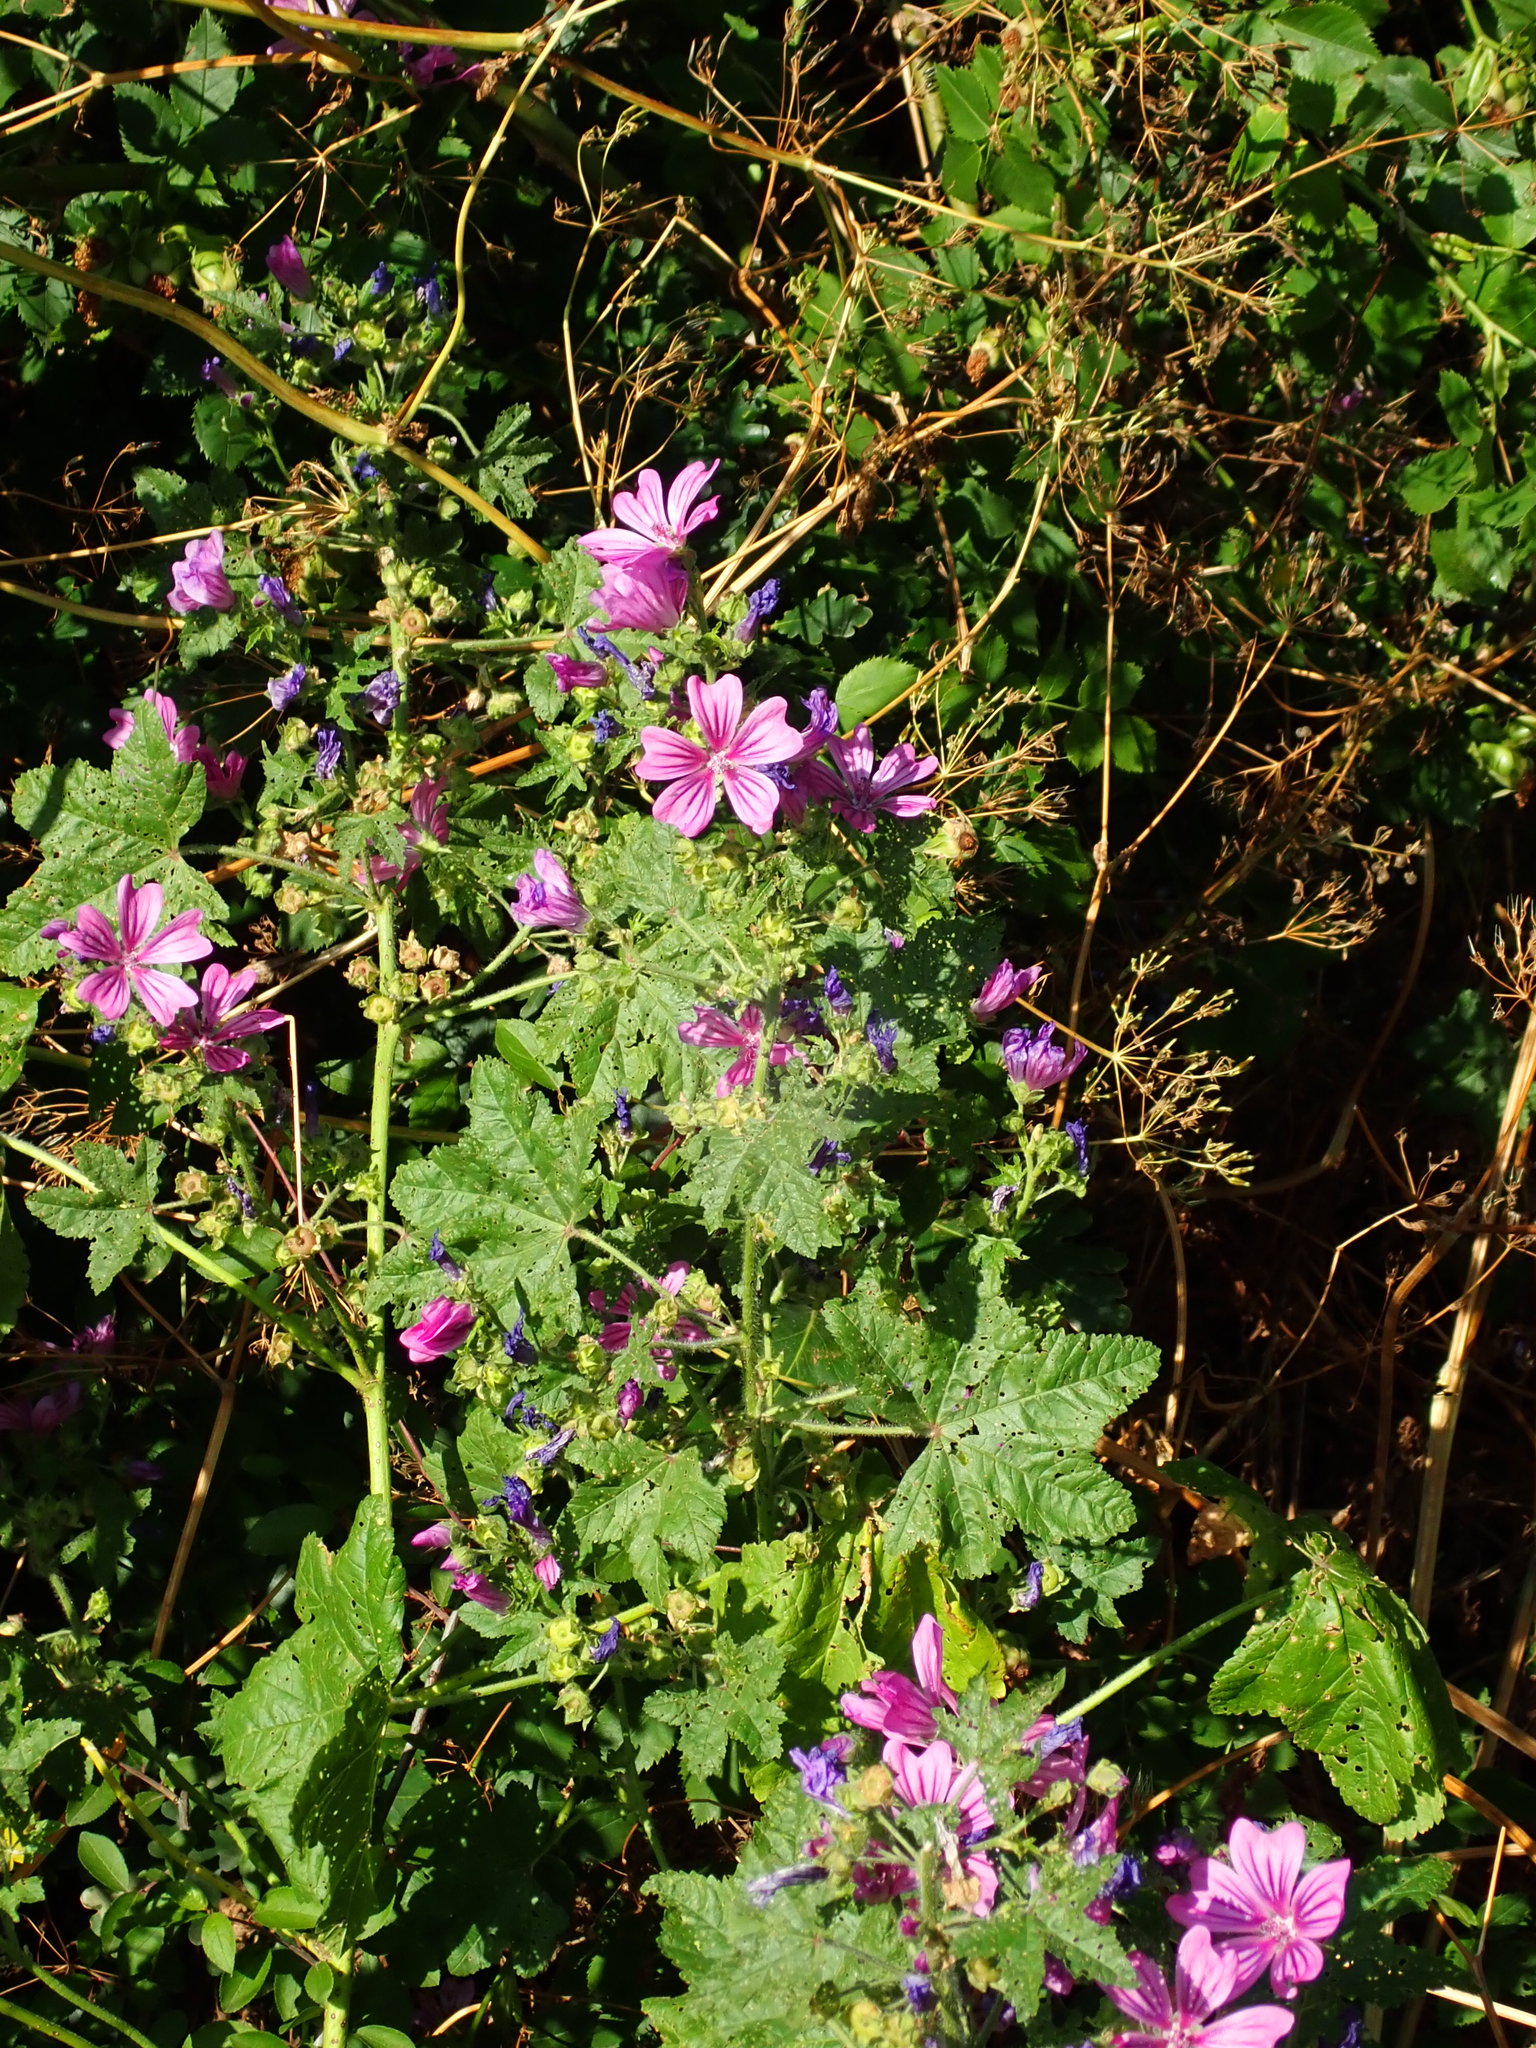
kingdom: Plantae
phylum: Tracheophyta
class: Magnoliopsida
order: Malvales
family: Malvaceae
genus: Malva
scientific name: Malva sylvestris
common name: Common mallow
